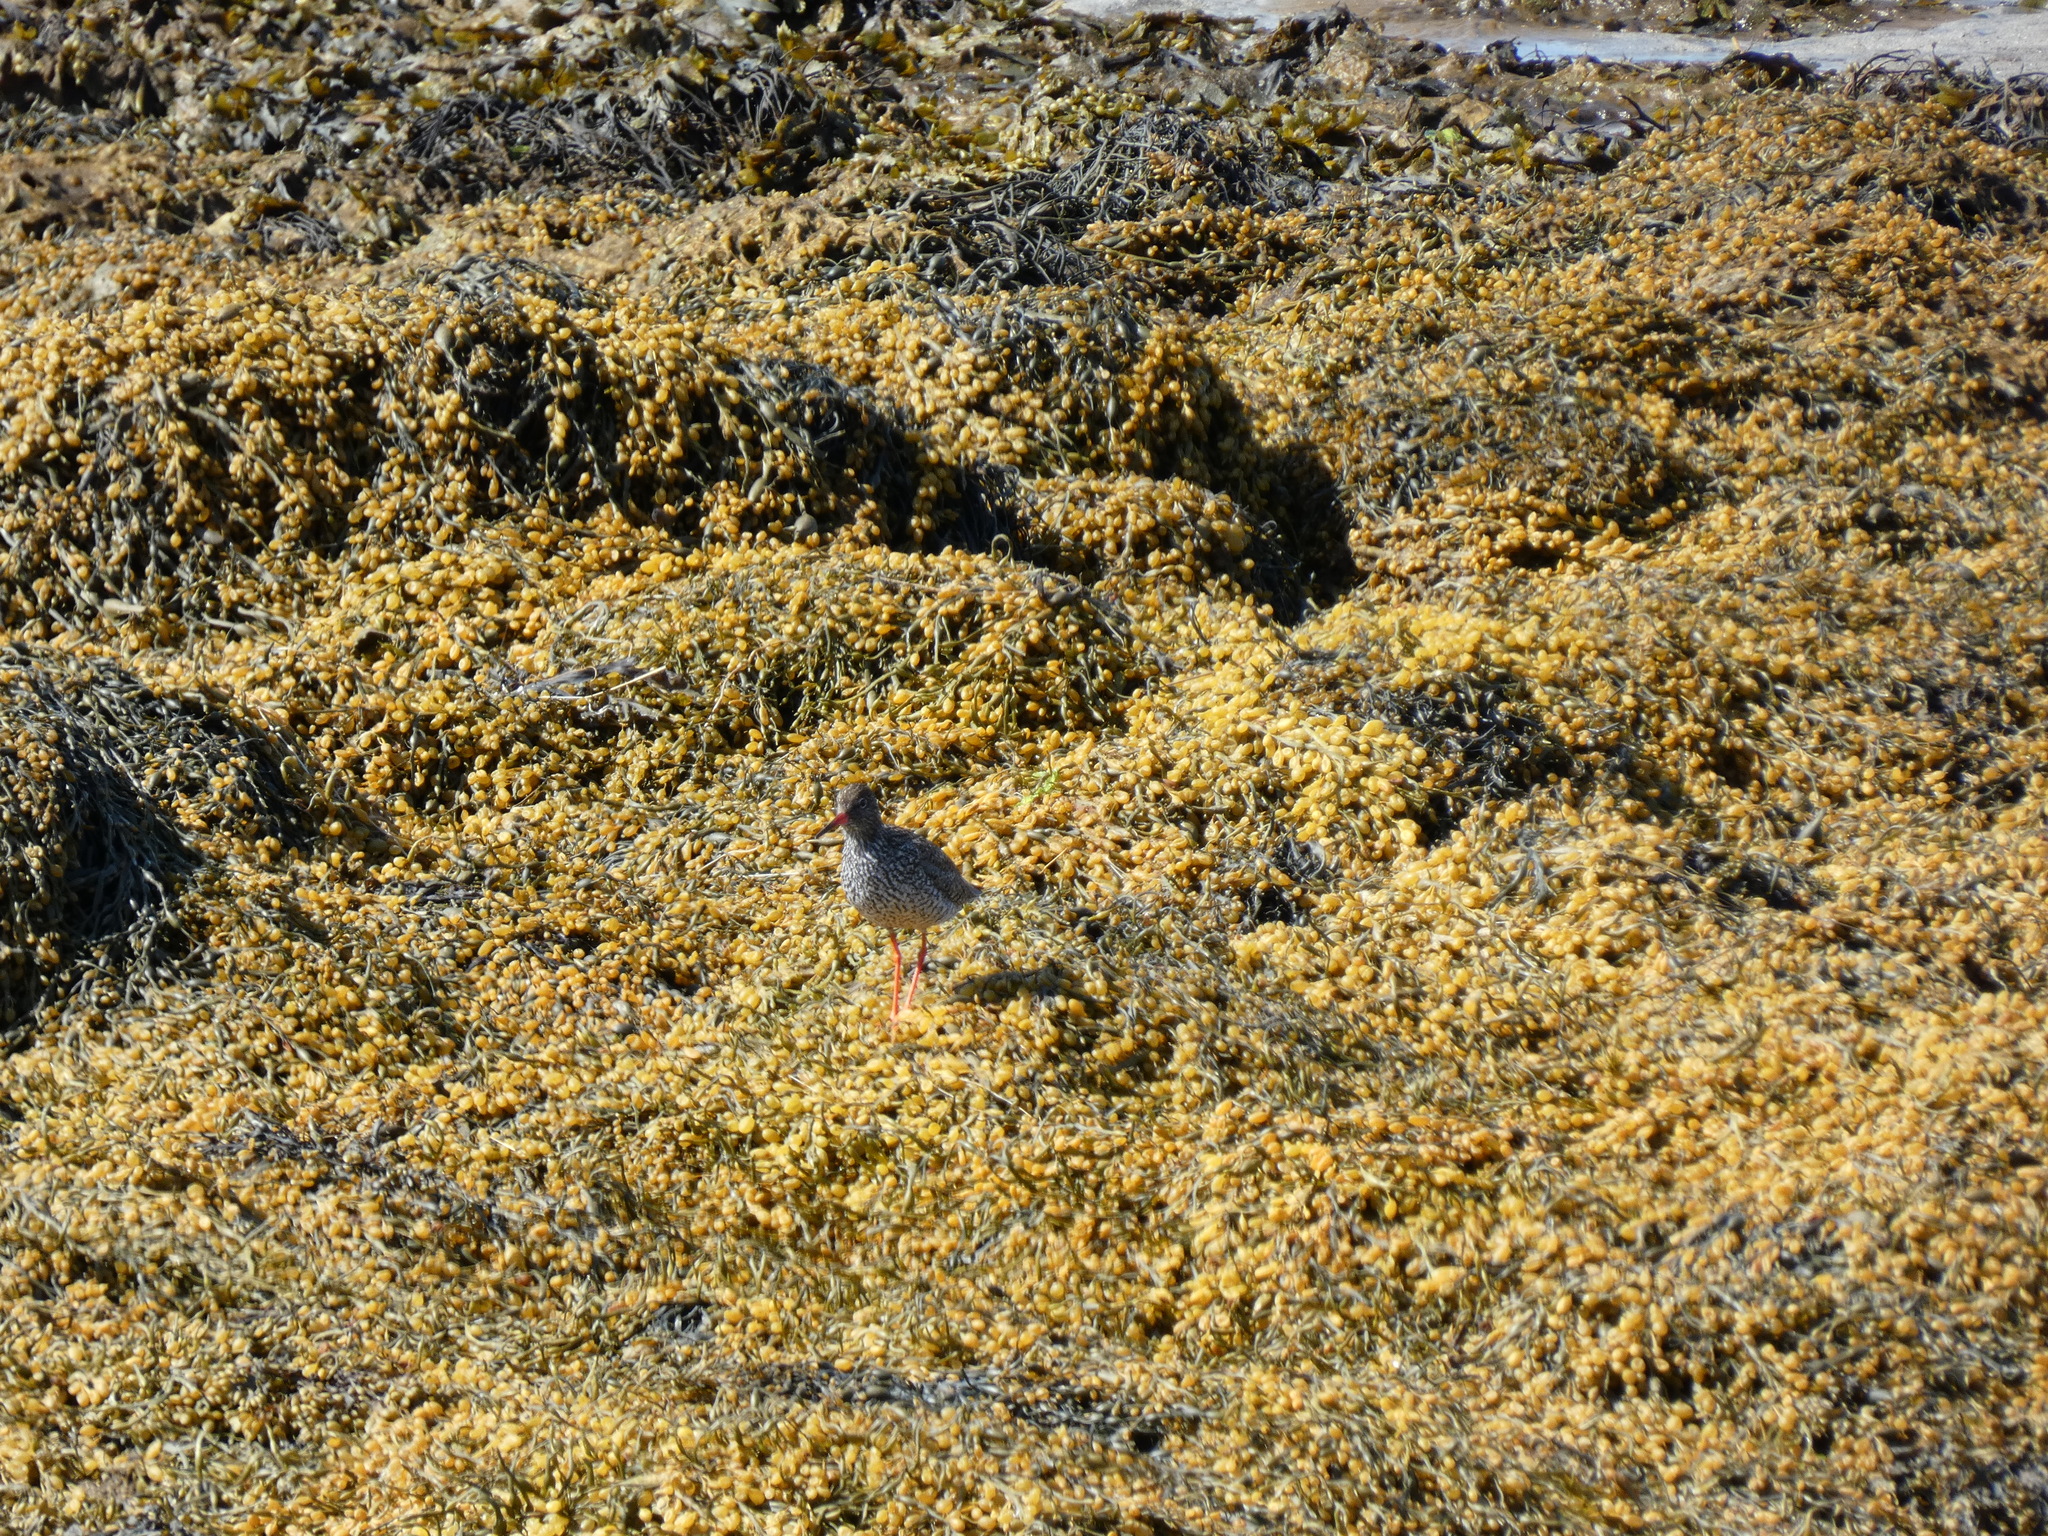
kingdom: Animalia
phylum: Chordata
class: Aves
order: Charadriiformes
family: Scolopacidae
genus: Tringa
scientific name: Tringa totanus
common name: Common redshank
